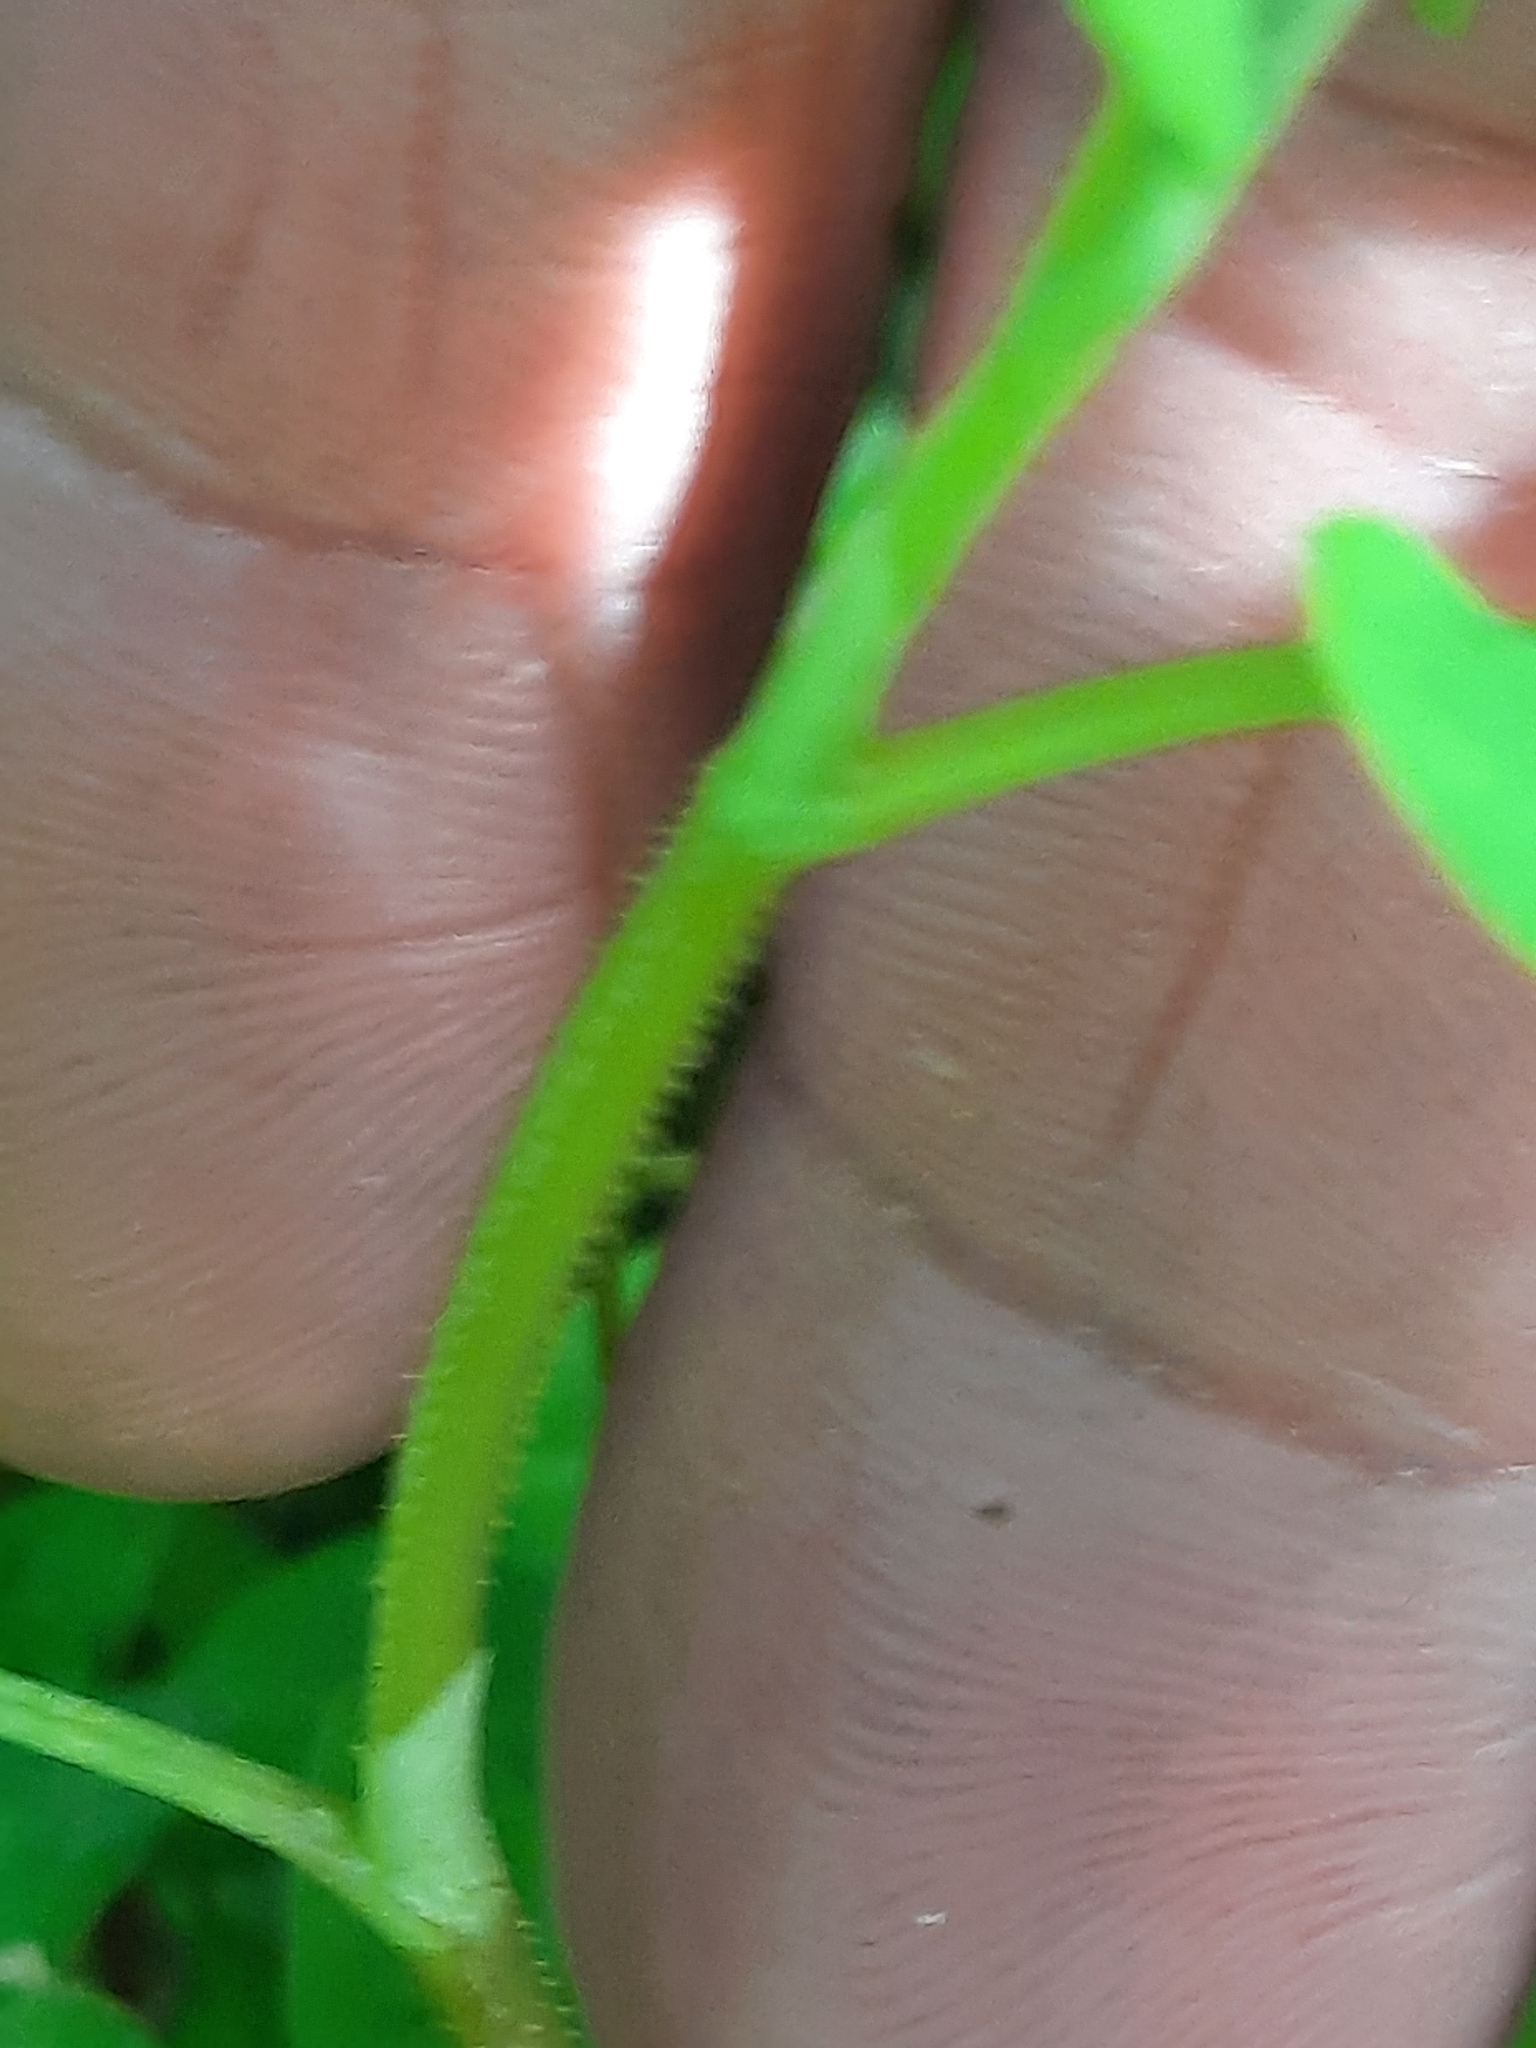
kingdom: Plantae
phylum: Tracheophyta
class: Magnoliopsida
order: Caryophyllales
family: Polygonaceae
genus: Persicaria
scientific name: Persicaria sagittata
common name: American tearthumb
